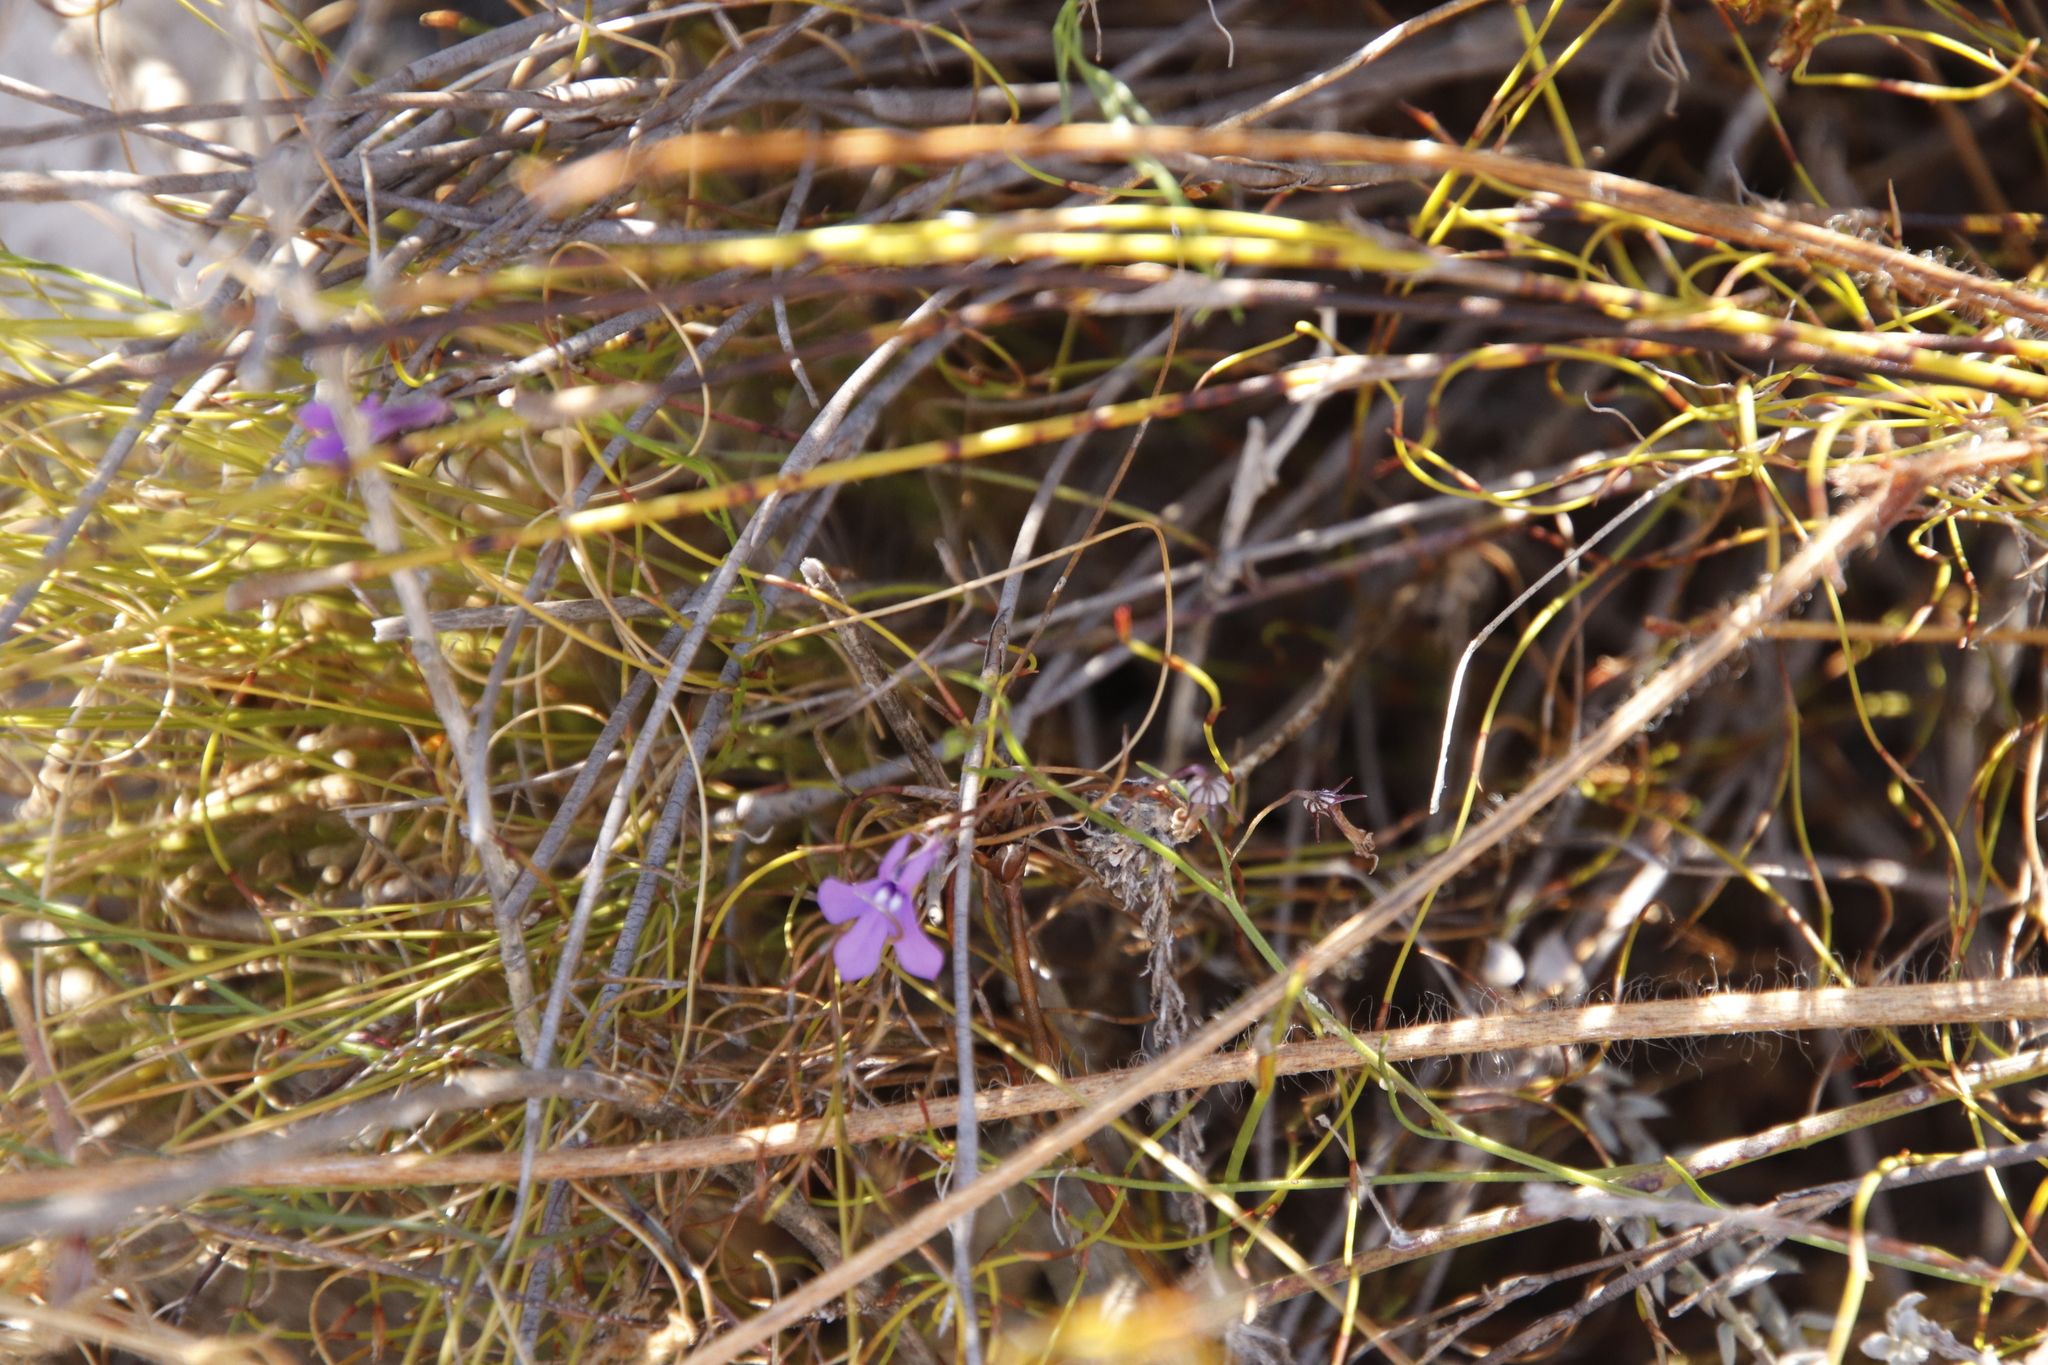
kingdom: Plantae
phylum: Tracheophyta
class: Magnoliopsida
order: Asterales
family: Campanulaceae
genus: Lobelia
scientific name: Lobelia setacea
